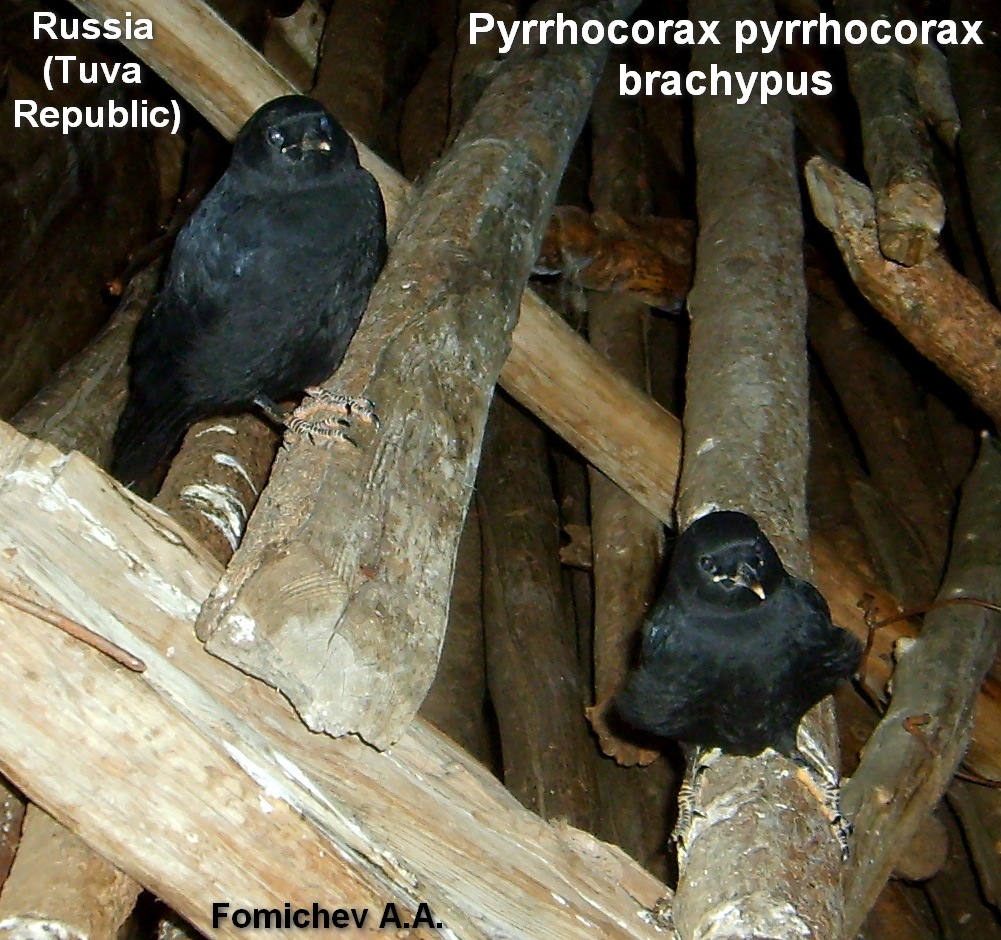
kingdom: Animalia
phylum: Chordata
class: Aves
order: Passeriformes
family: Corvidae
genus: Pyrrhocorax
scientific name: Pyrrhocorax pyrrhocorax
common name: Red-billed chough
